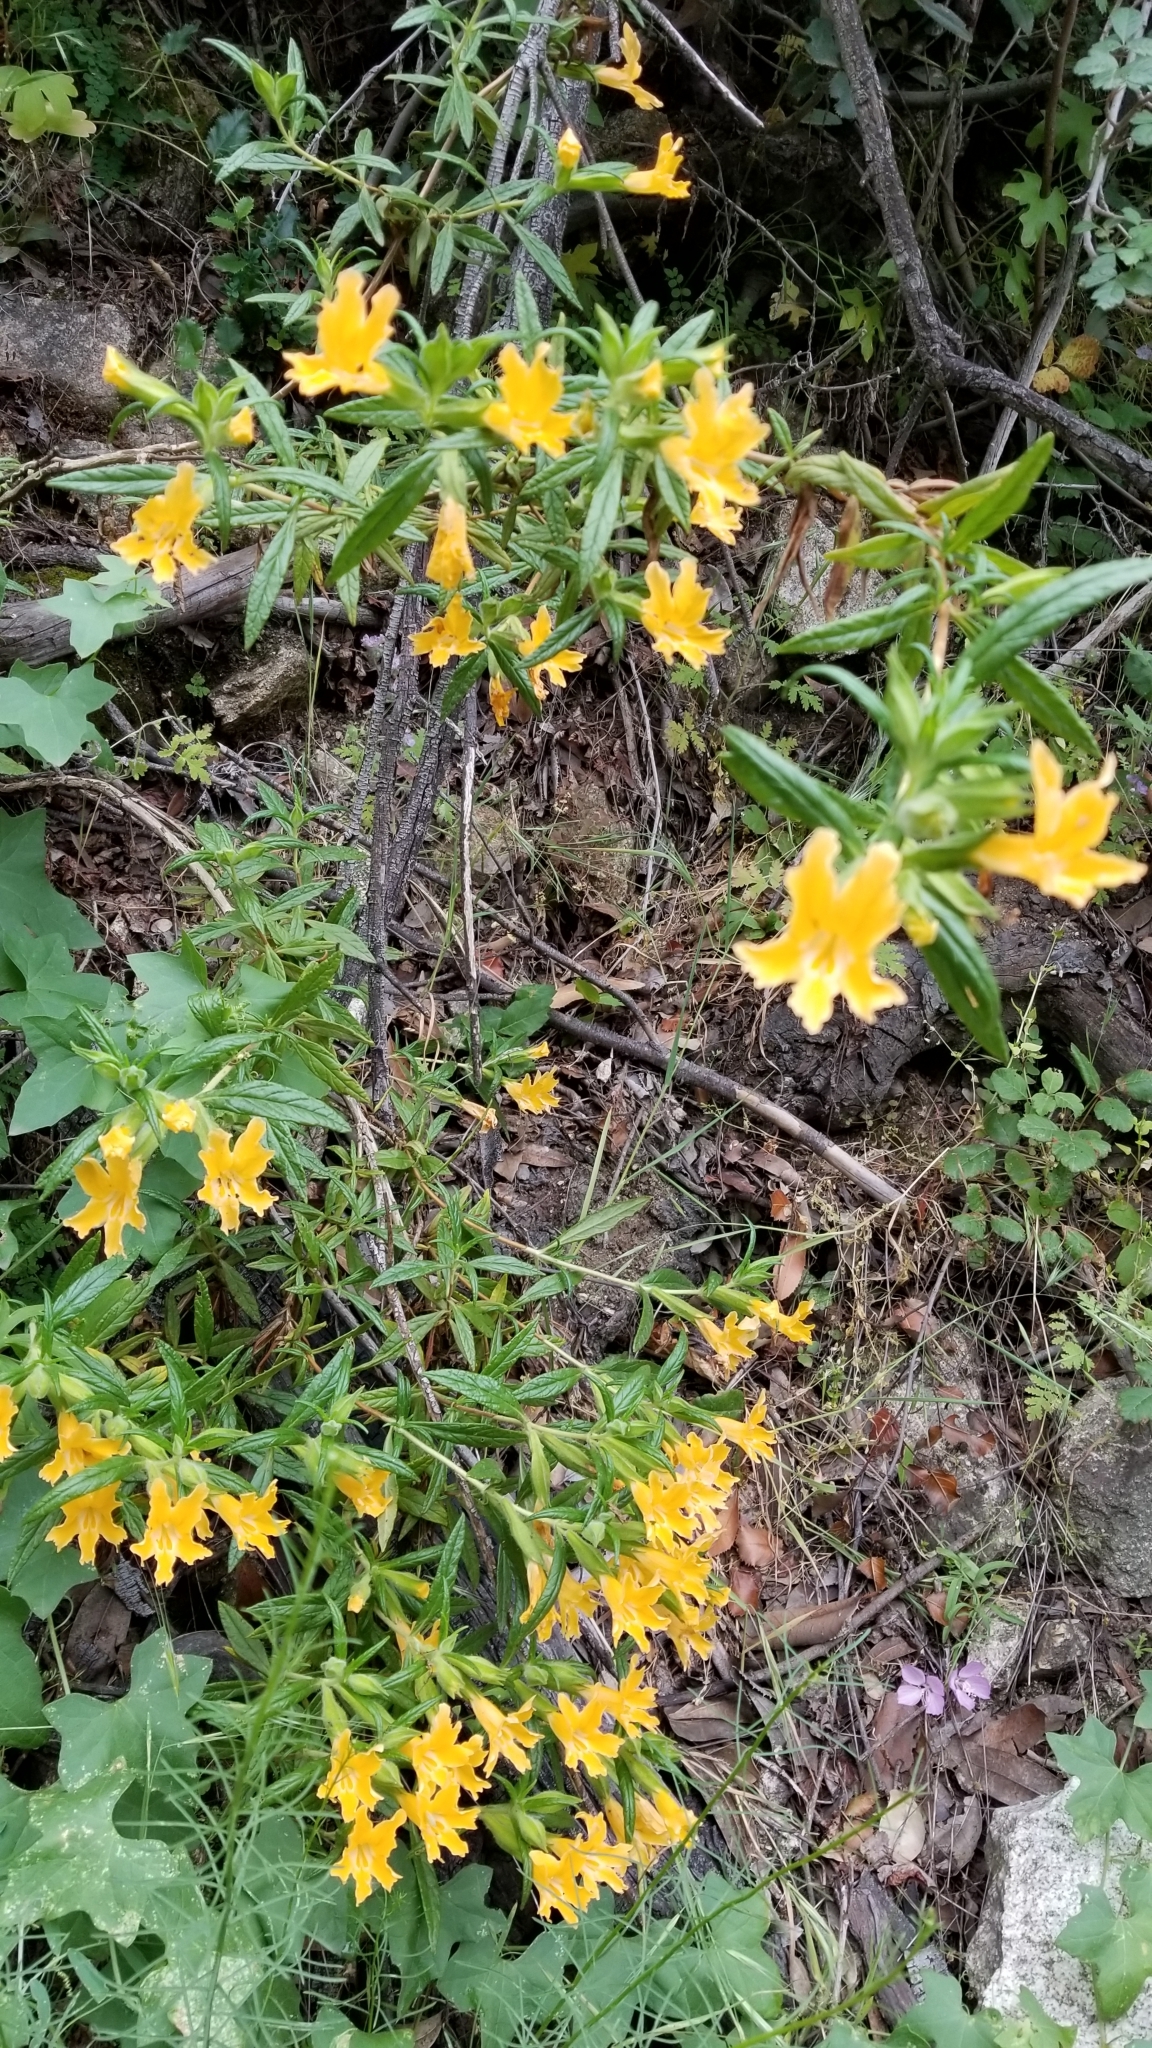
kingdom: Plantae
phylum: Tracheophyta
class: Magnoliopsida
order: Lamiales
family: Phrymaceae
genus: Diplacus
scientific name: Diplacus longiflorus
